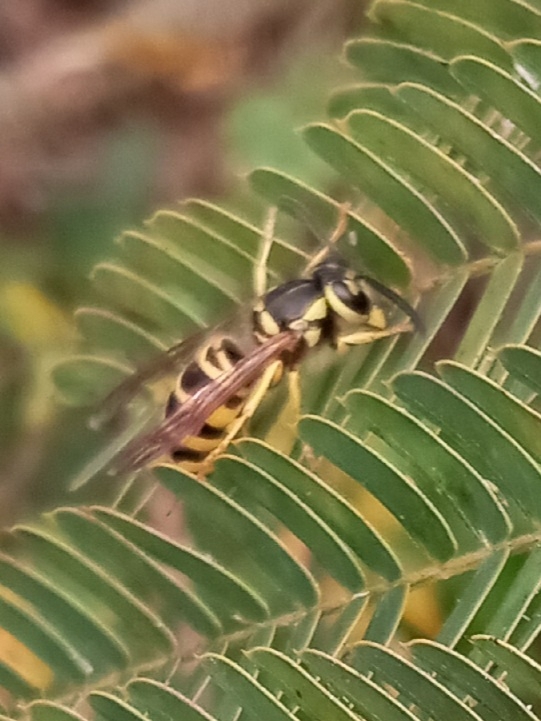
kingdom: Animalia
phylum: Arthropoda
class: Insecta
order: Hymenoptera
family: Vespidae
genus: Vespula
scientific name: Vespula maculifrons
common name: Eastern yellowjacket
